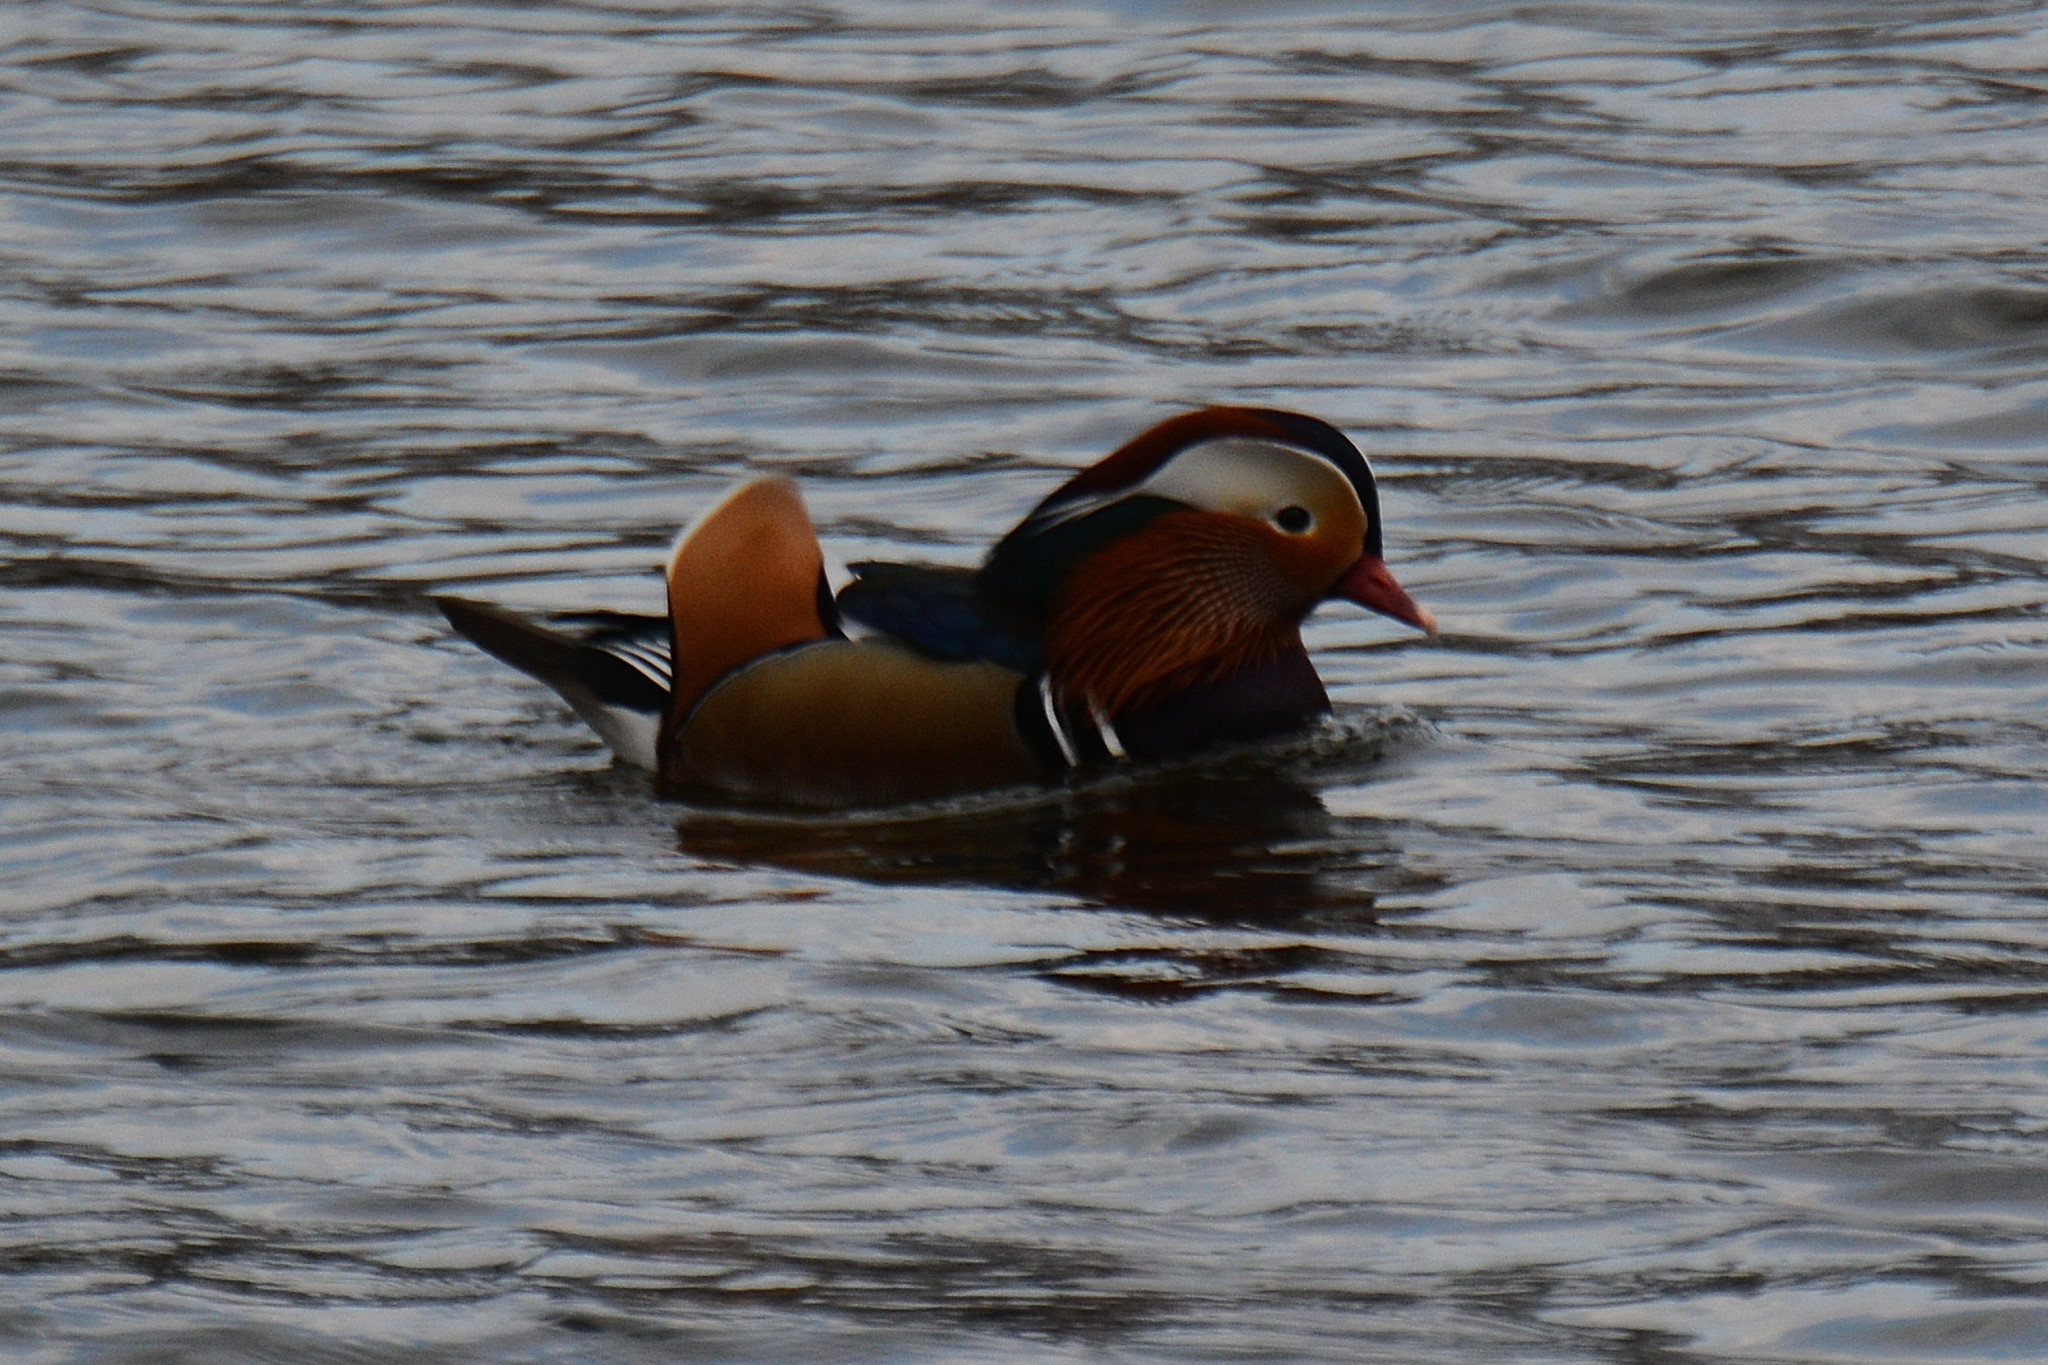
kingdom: Animalia
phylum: Chordata
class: Aves
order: Anseriformes
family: Anatidae
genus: Aix
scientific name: Aix galericulata
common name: Mandarin duck
